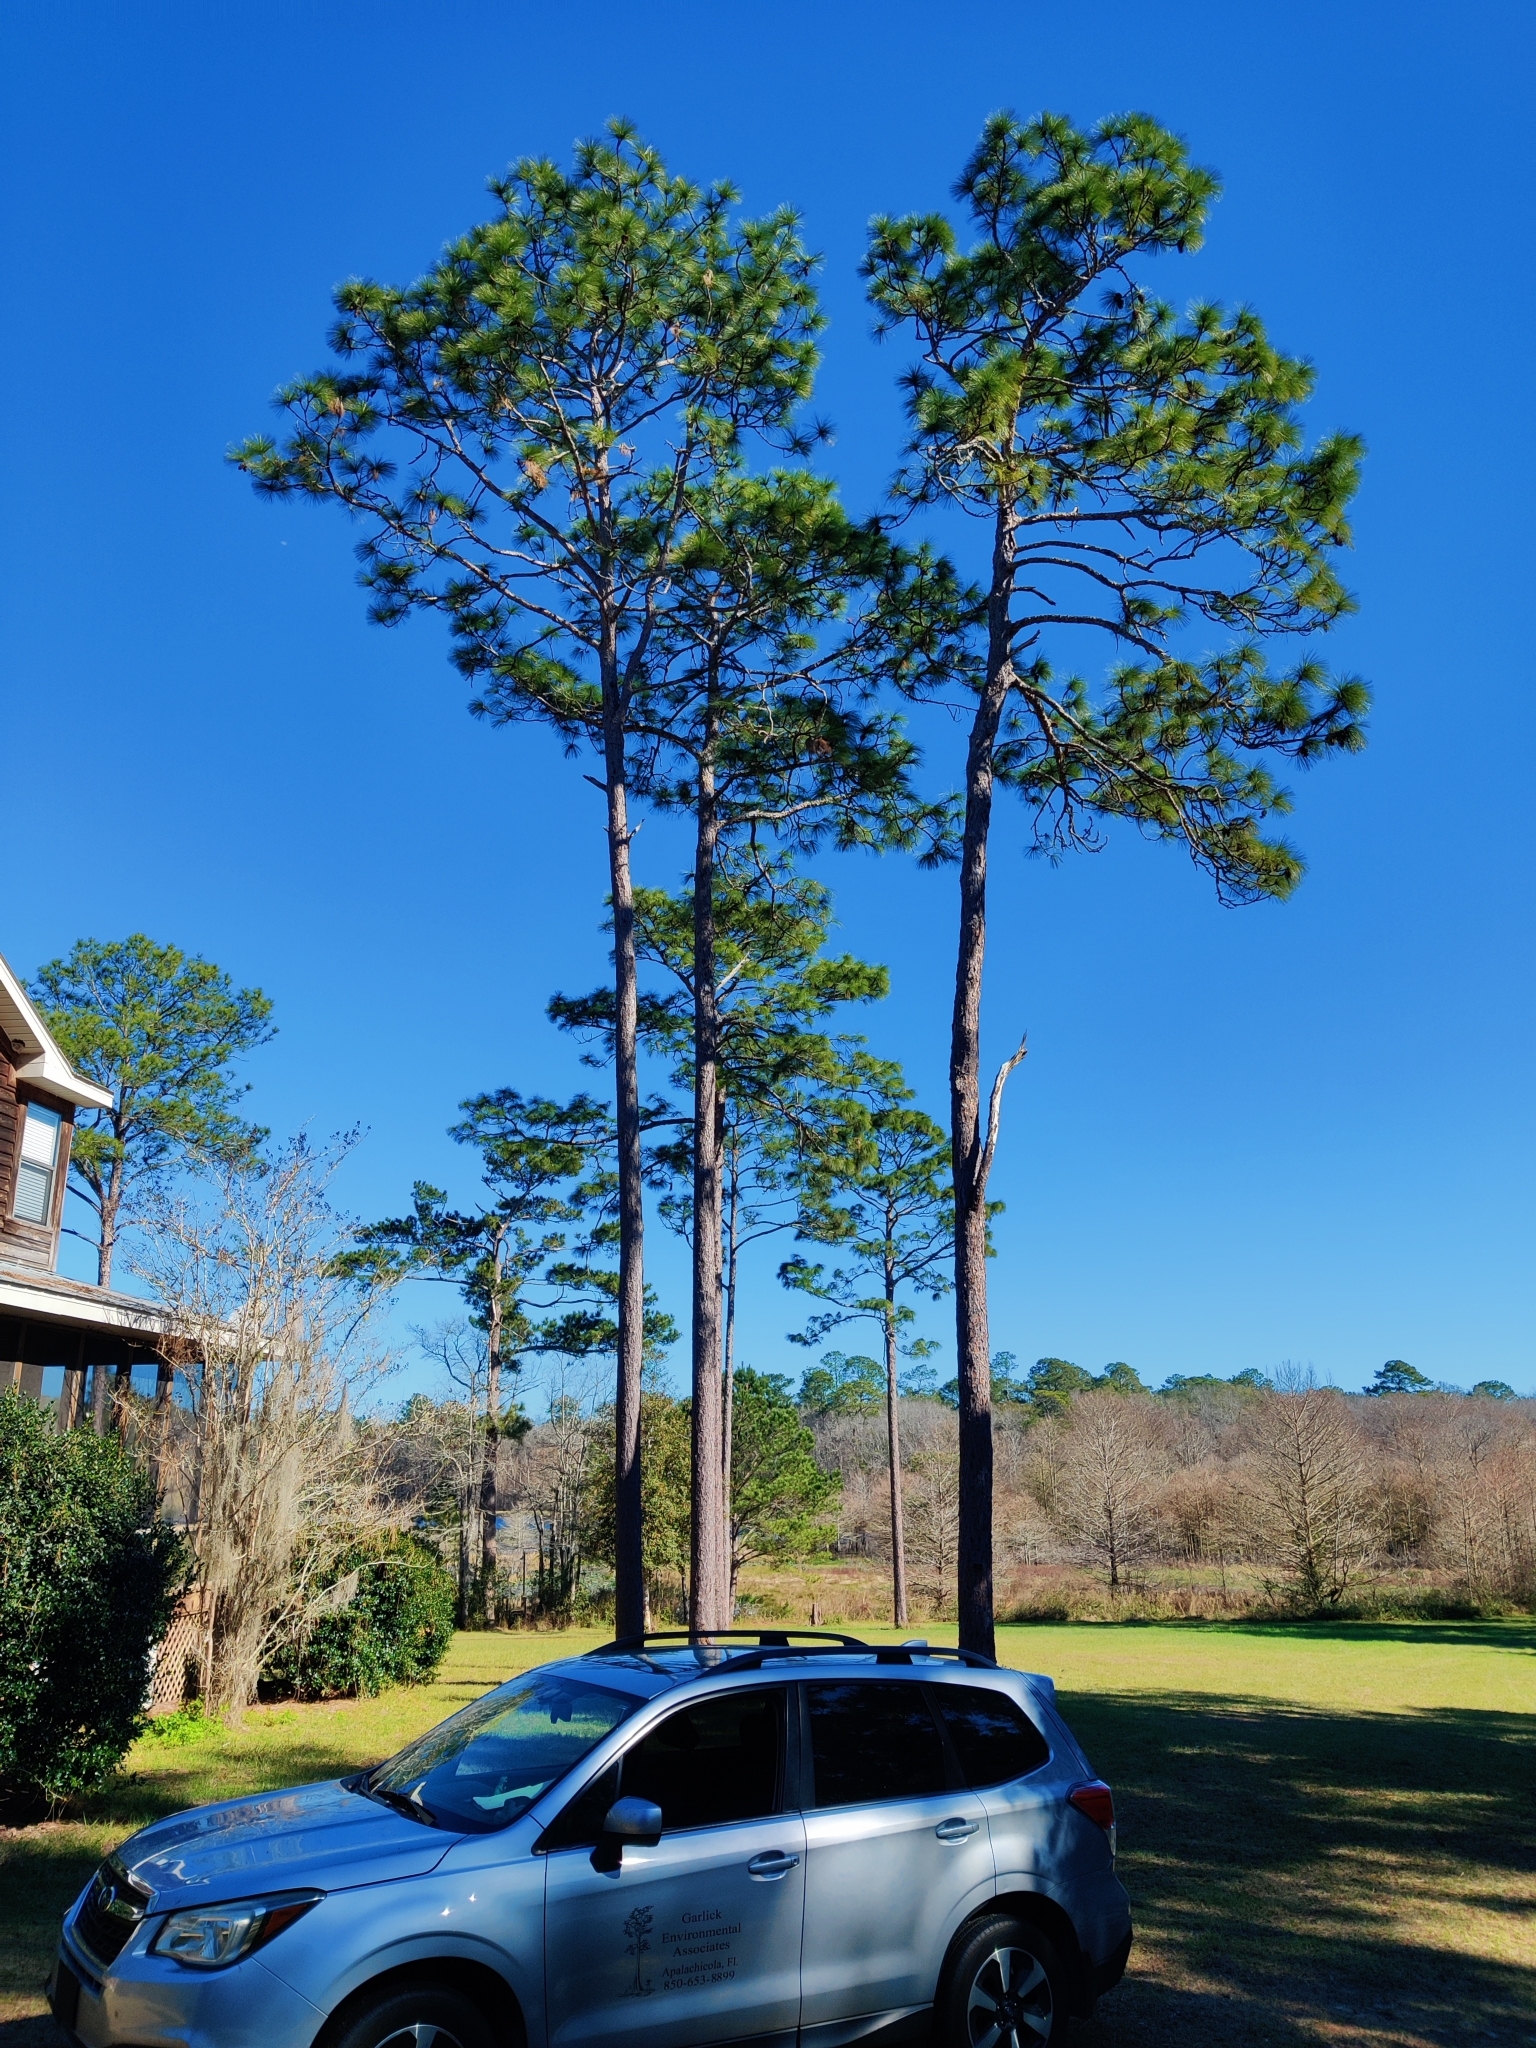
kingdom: Plantae
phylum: Tracheophyta
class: Pinopsida
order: Pinales
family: Pinaceae
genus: Pinus
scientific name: Pinus palustris
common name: Longleaf pine
